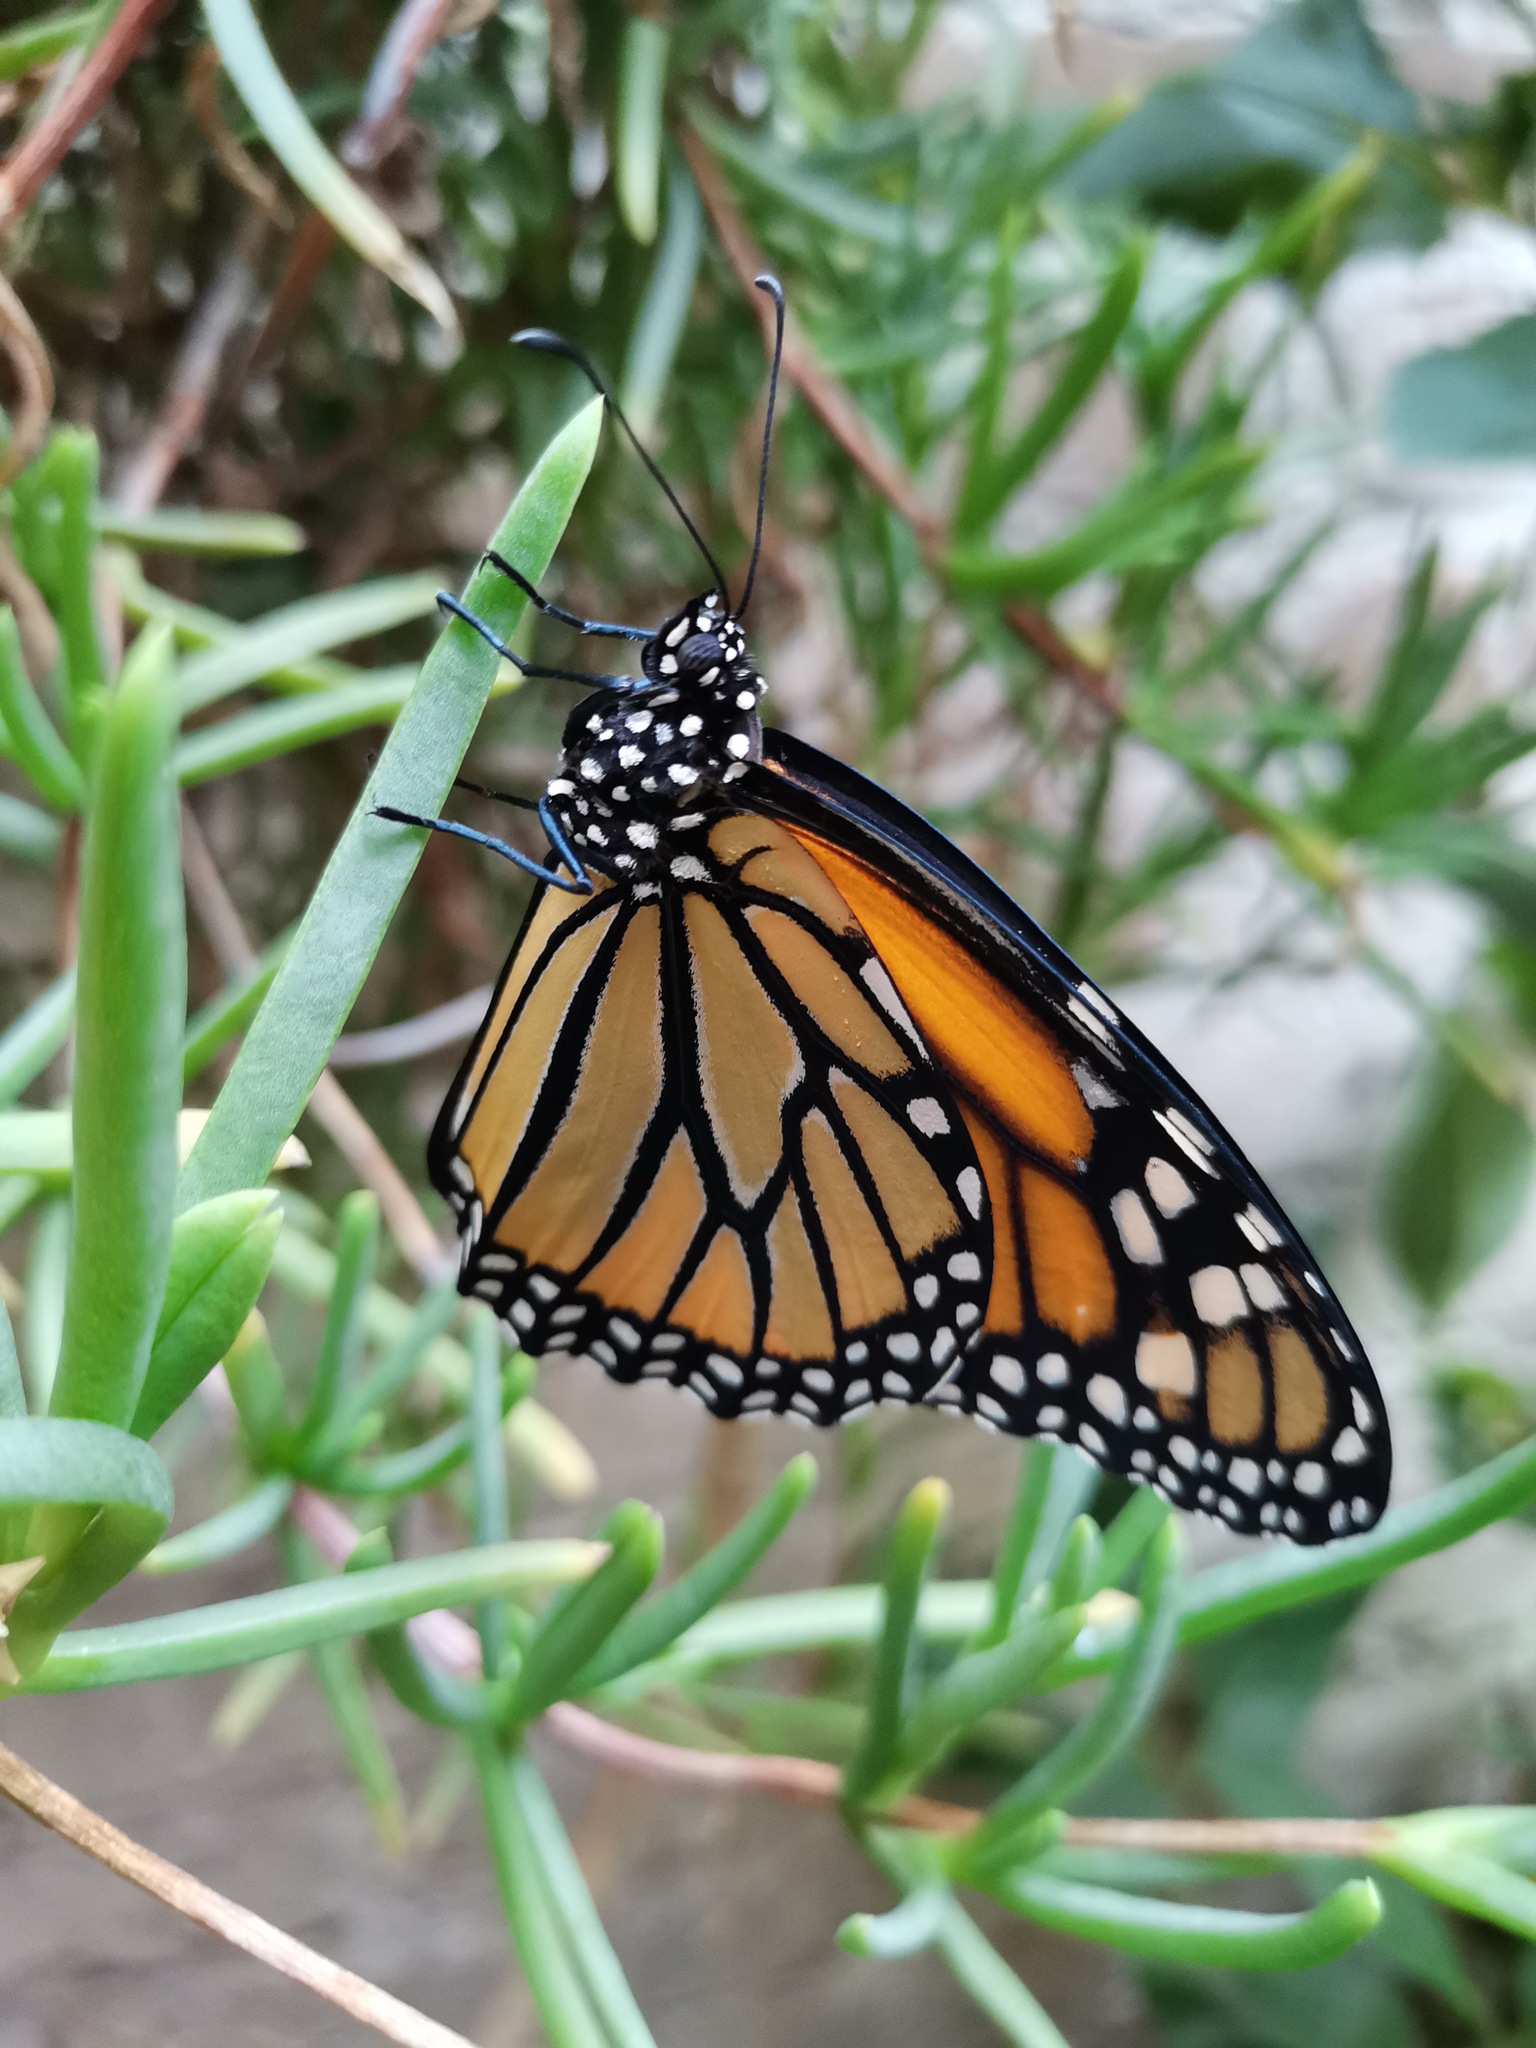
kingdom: Animalia
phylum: Arthropoda
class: Insecta
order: Lepidoptera
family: Nymphalidae
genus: Danaus
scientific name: Danaus plexippus
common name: Monarch
